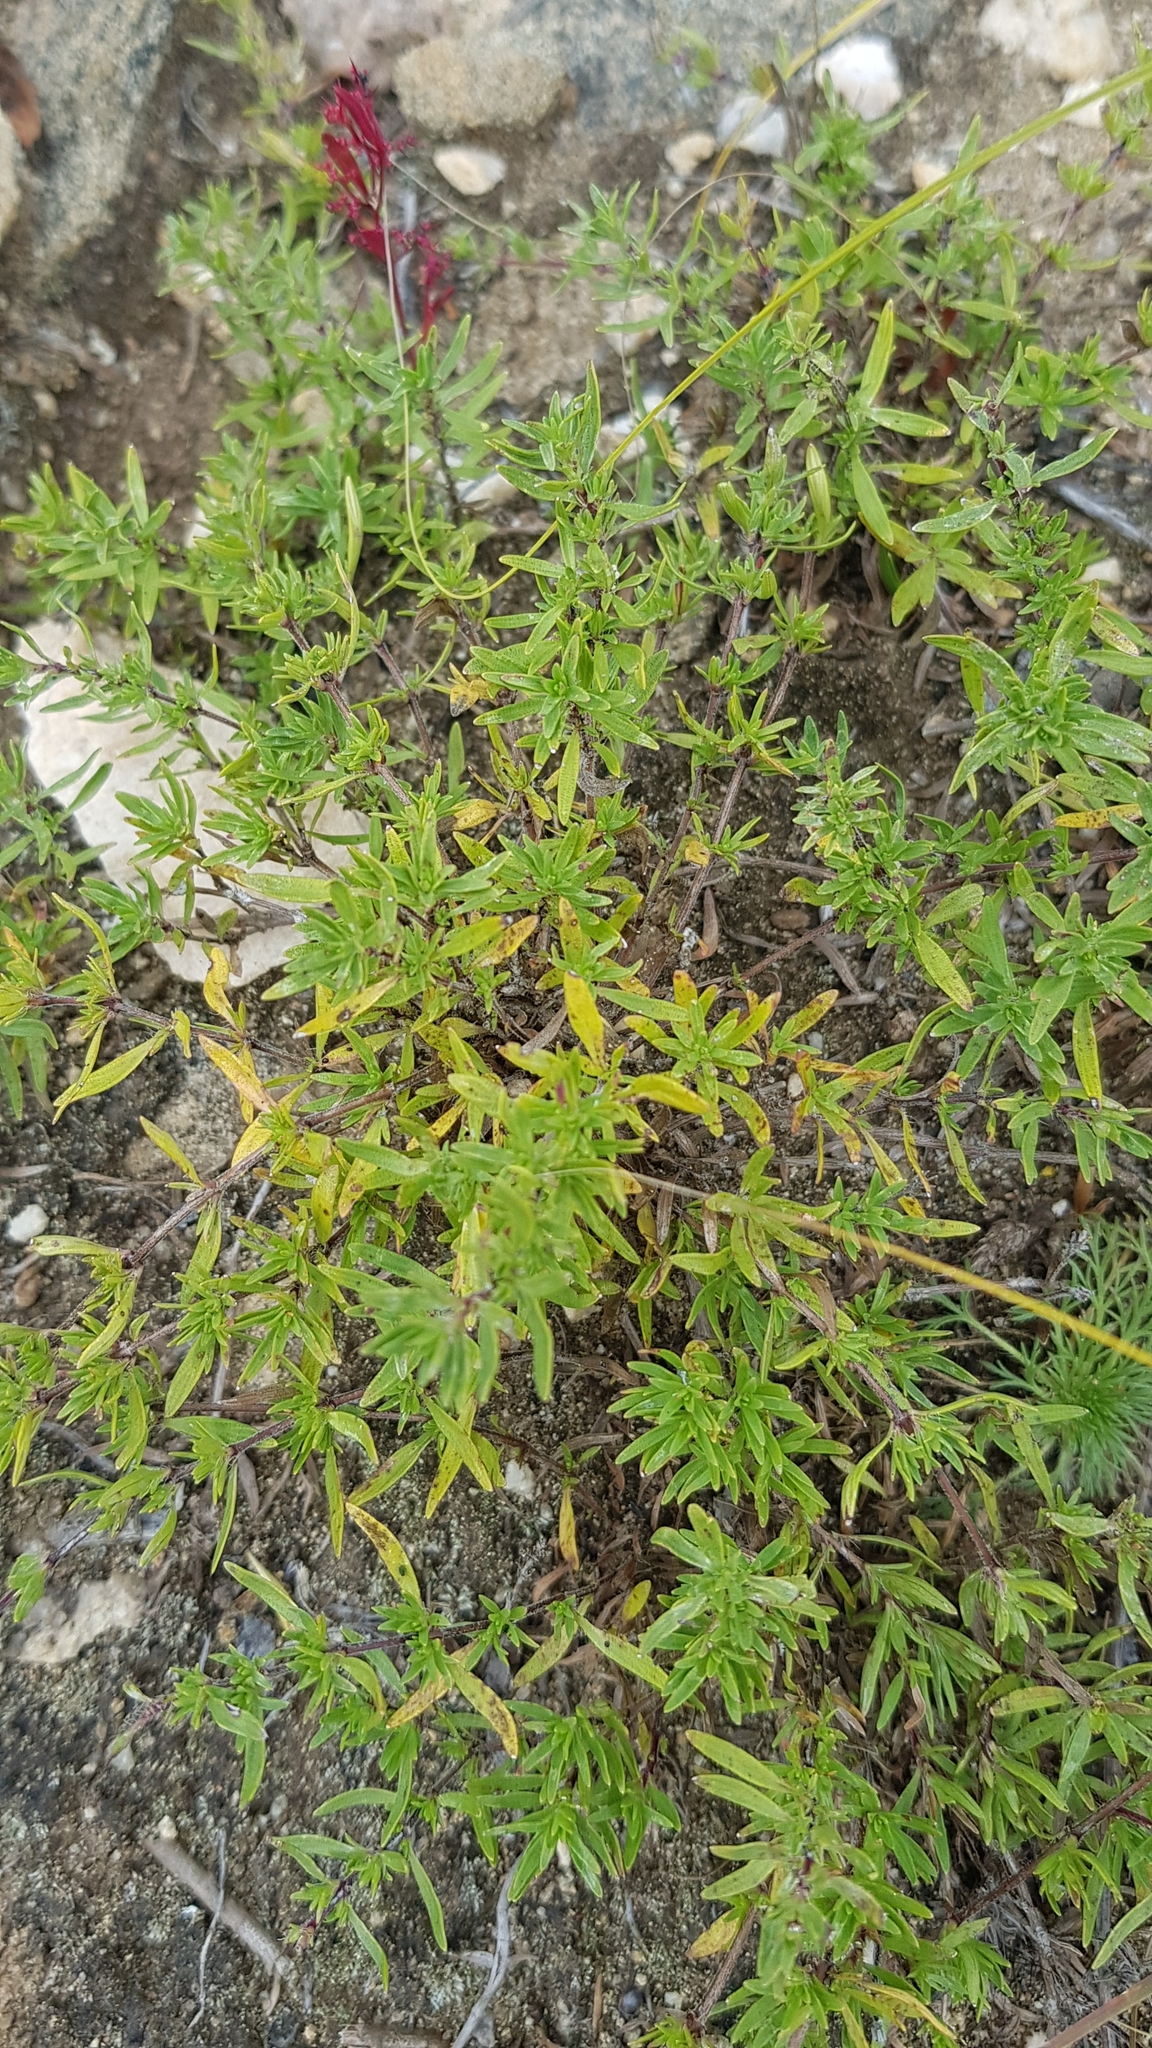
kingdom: Plantae
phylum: Tracheophyta
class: Magnoliopsida
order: Lamiales
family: Lamiaceae
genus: Thymus
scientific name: Thymus baicalensis
